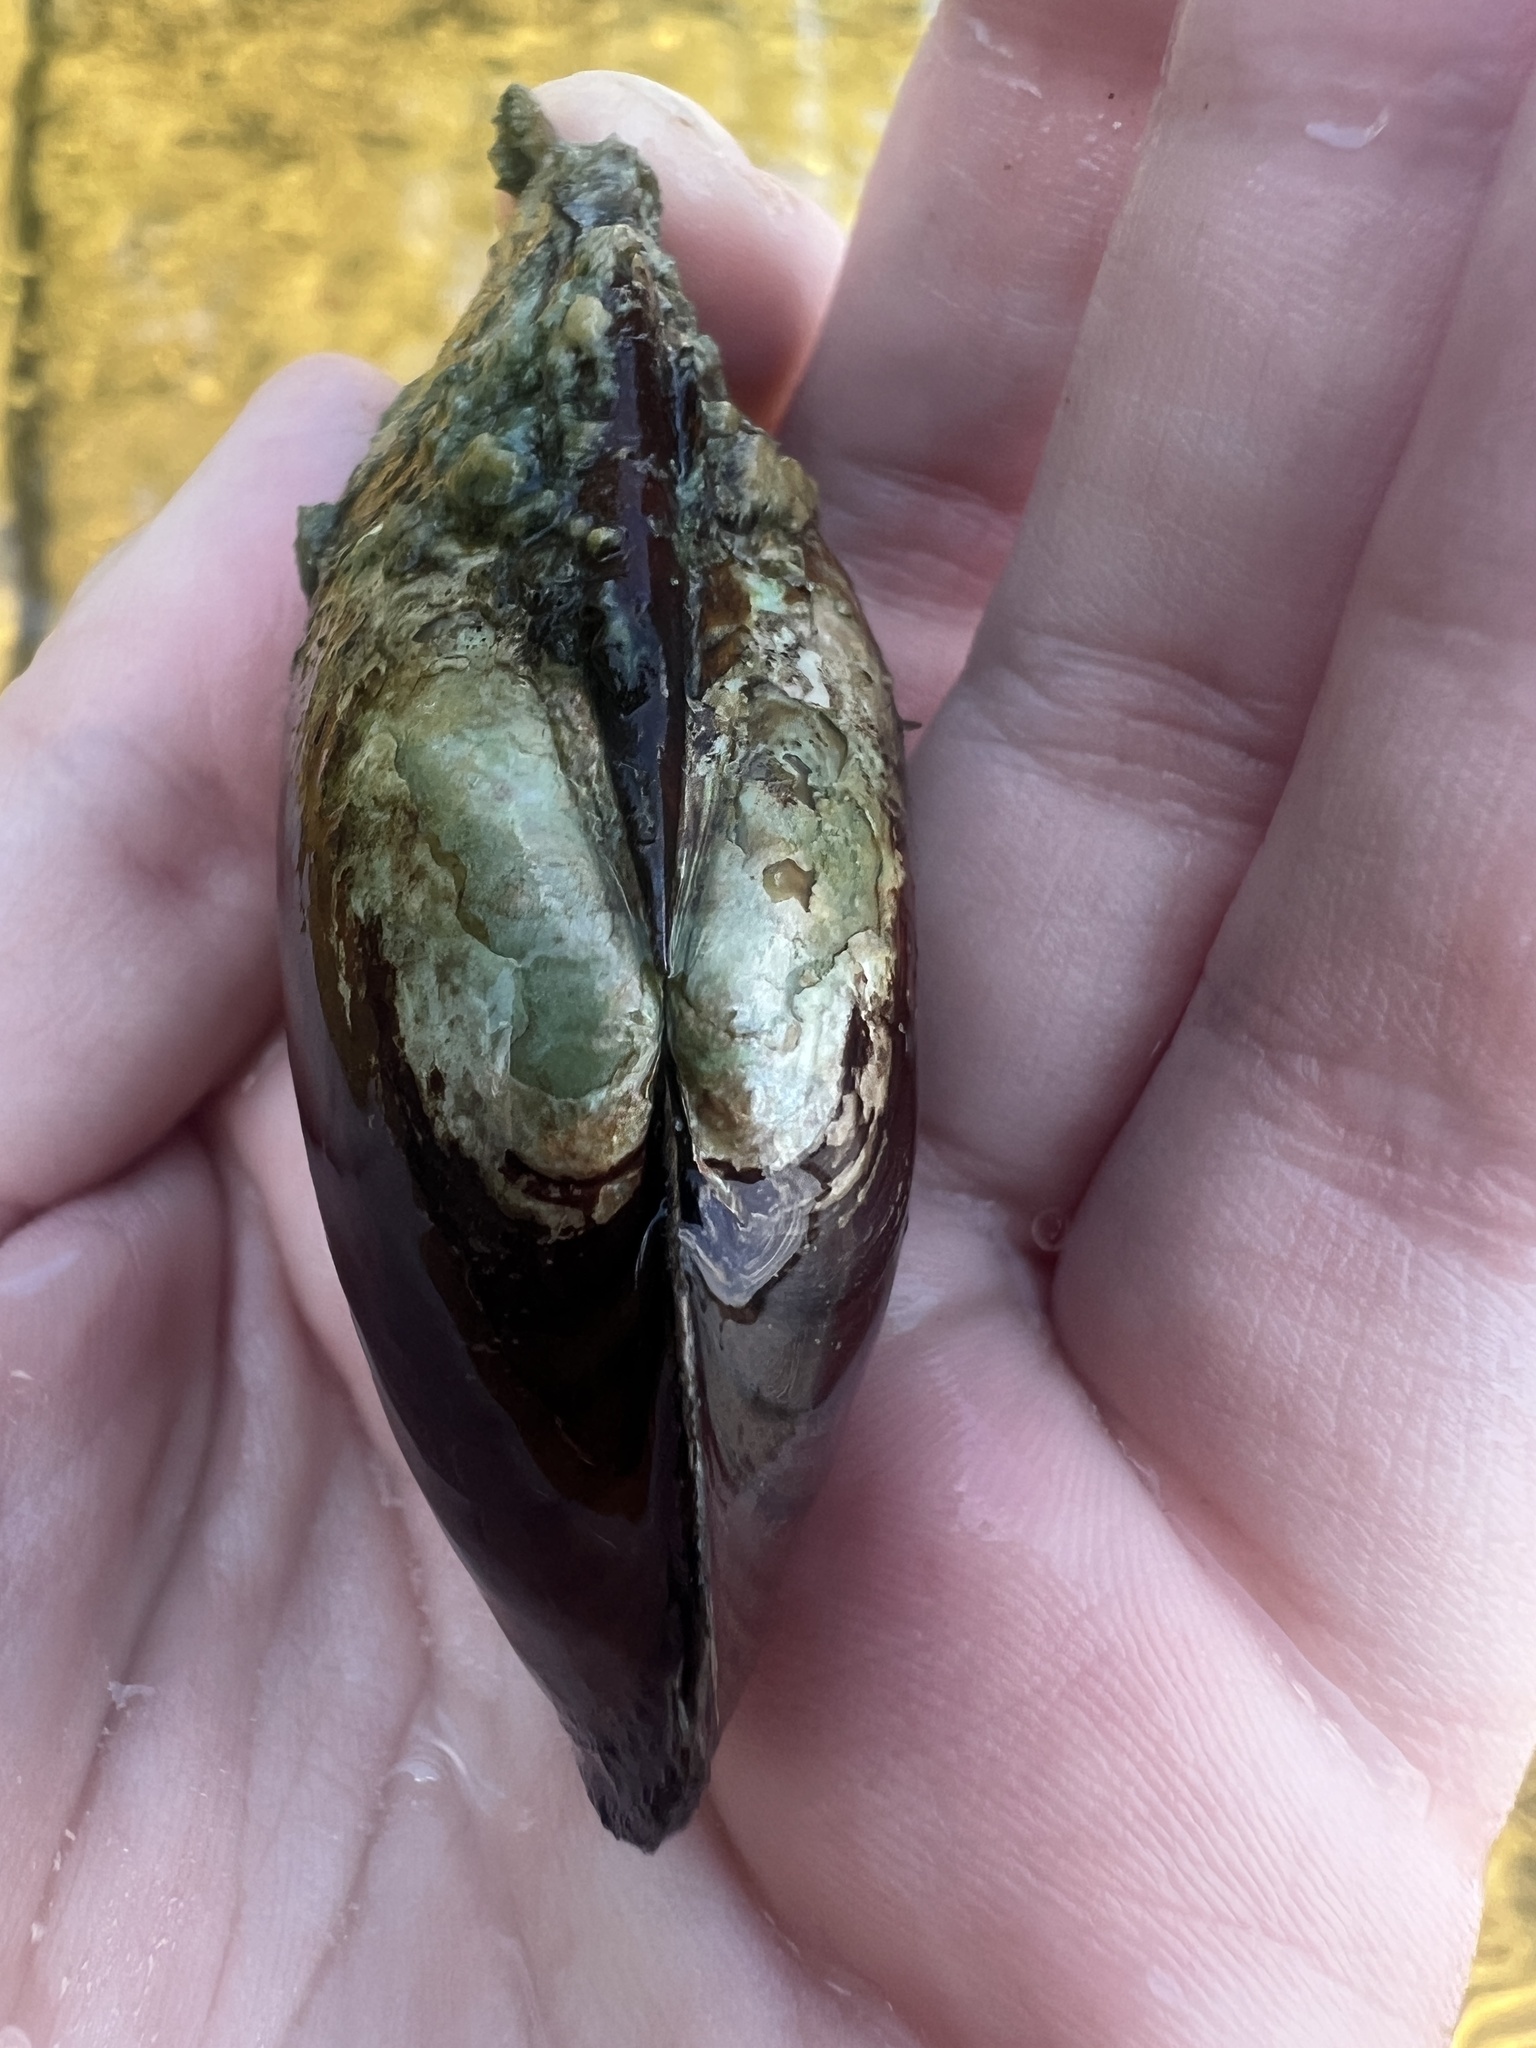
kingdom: Animalia
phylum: Mollusca
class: Bivalvia
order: Unionida
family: Unionidae
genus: Lampsilis
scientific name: Lampsilis siliquoidea
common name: Fatmucket
